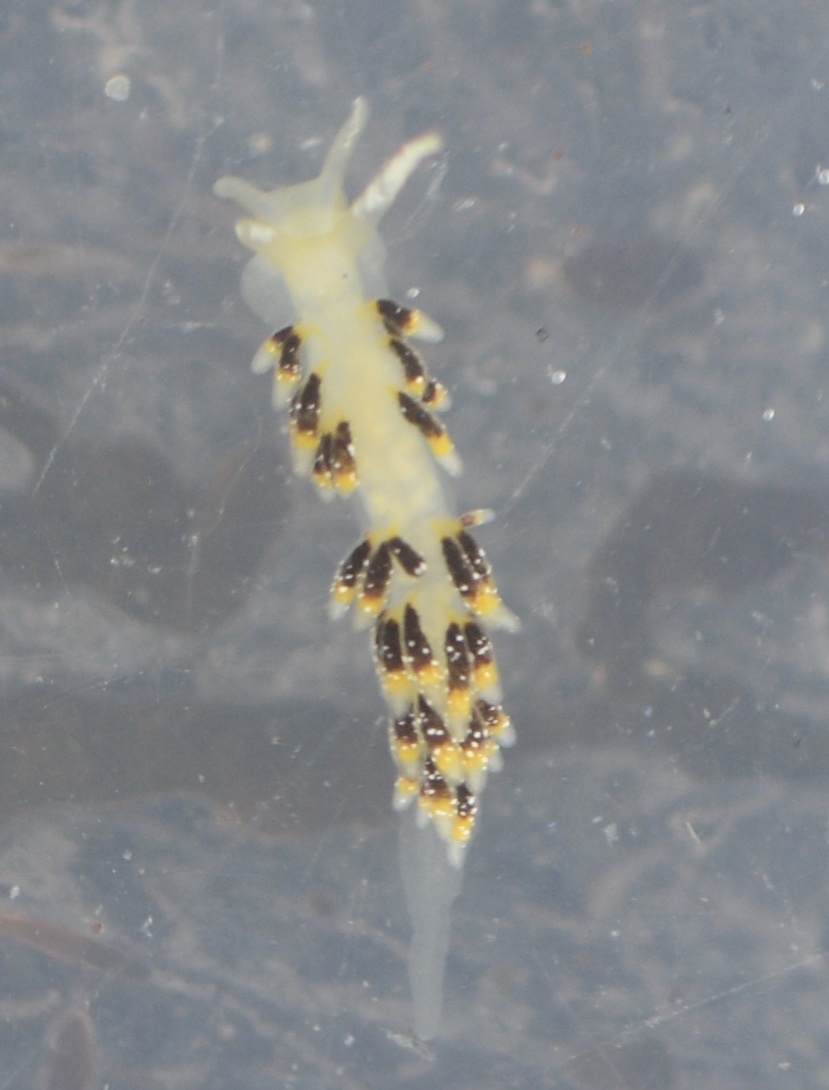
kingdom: Animalia
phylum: Mollusca
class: Gastropoda
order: Nudibranchia
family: Trinchesiidae
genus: Zelentia
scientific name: Zelentia fulgens
